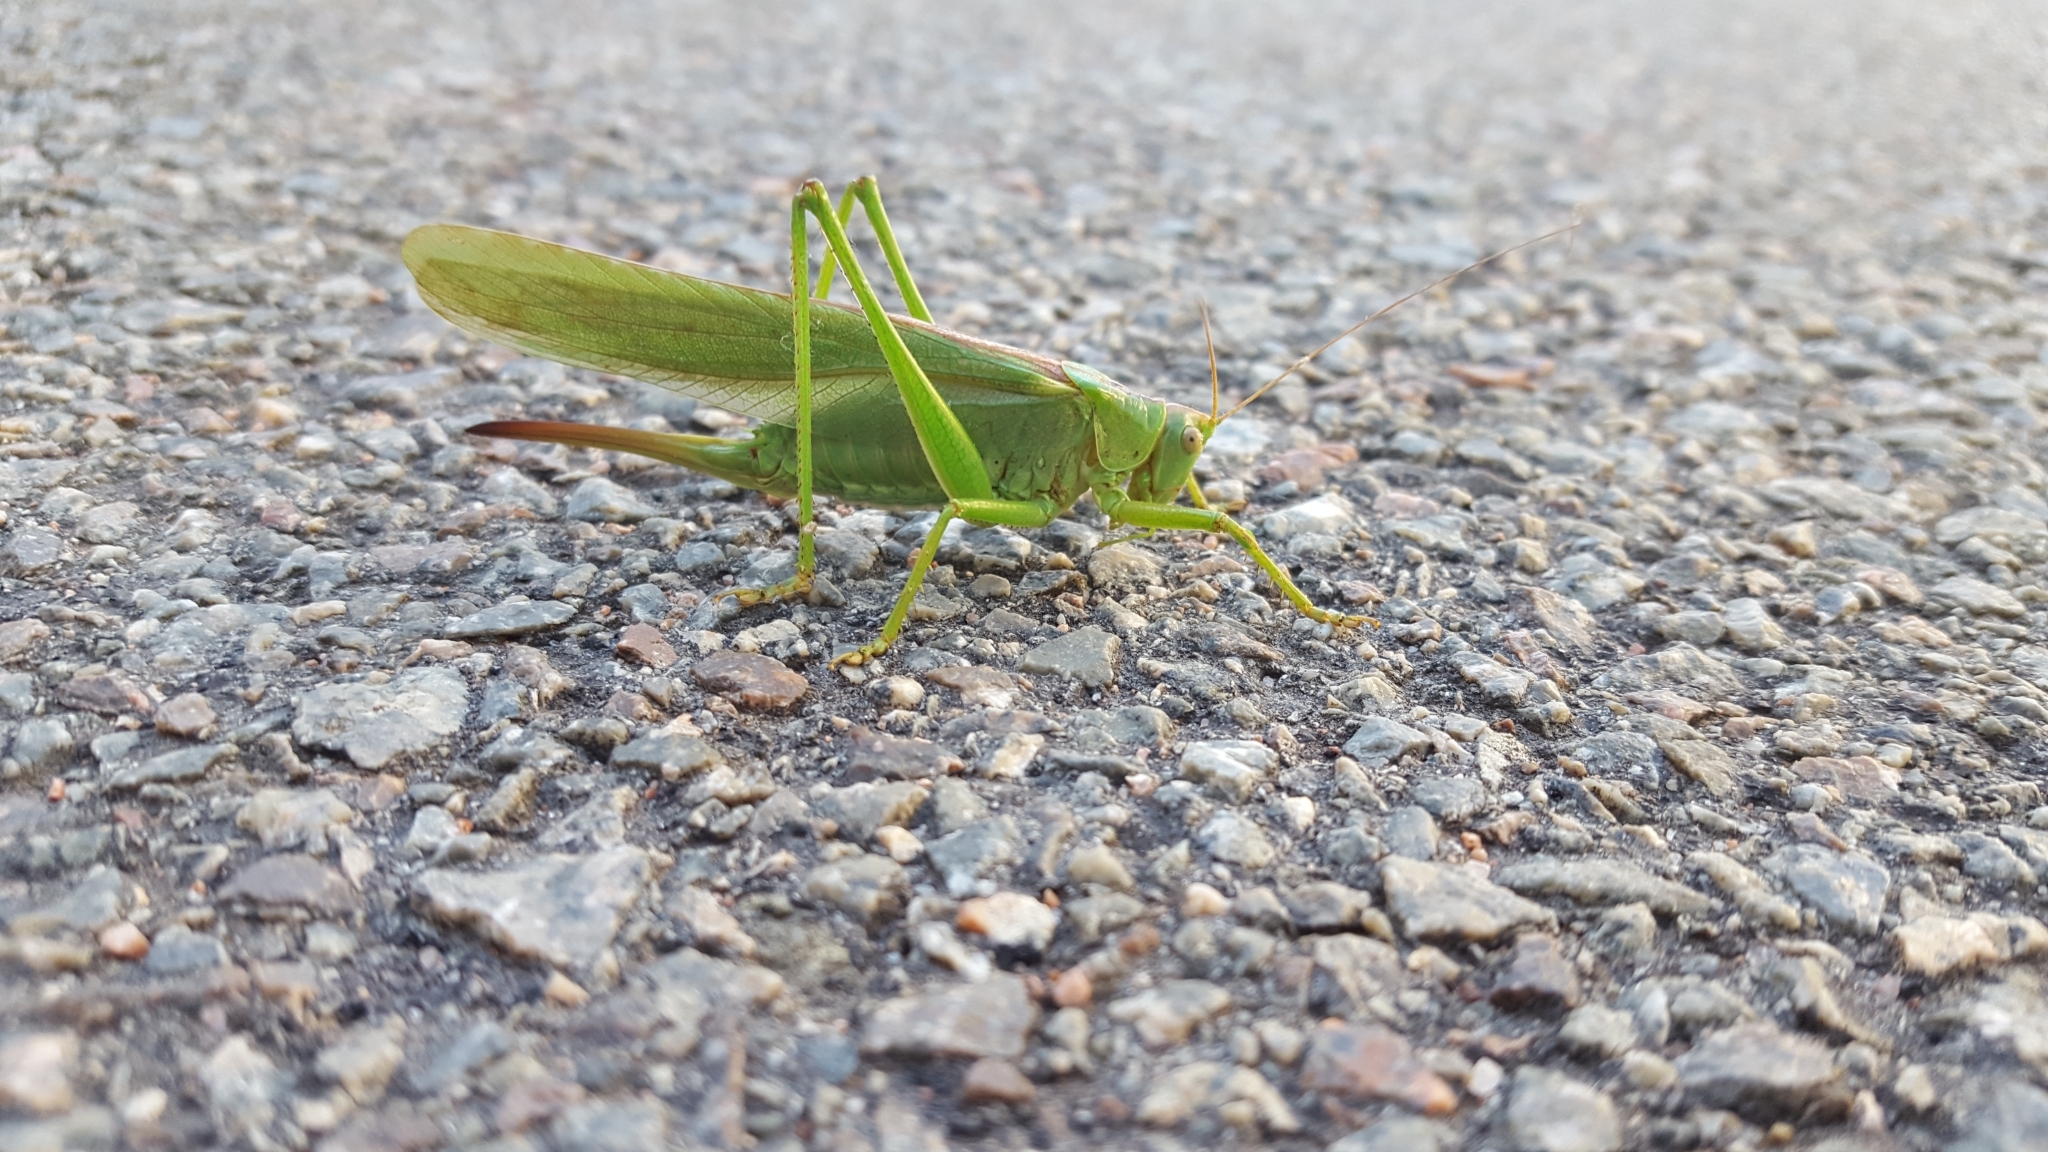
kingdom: Animalia
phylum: Arthropoda
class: Insecta
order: Orthoptera
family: Tettigoniidae
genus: Tettigonia
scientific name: Tettigonia viridissima
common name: Great green bush-cricket
